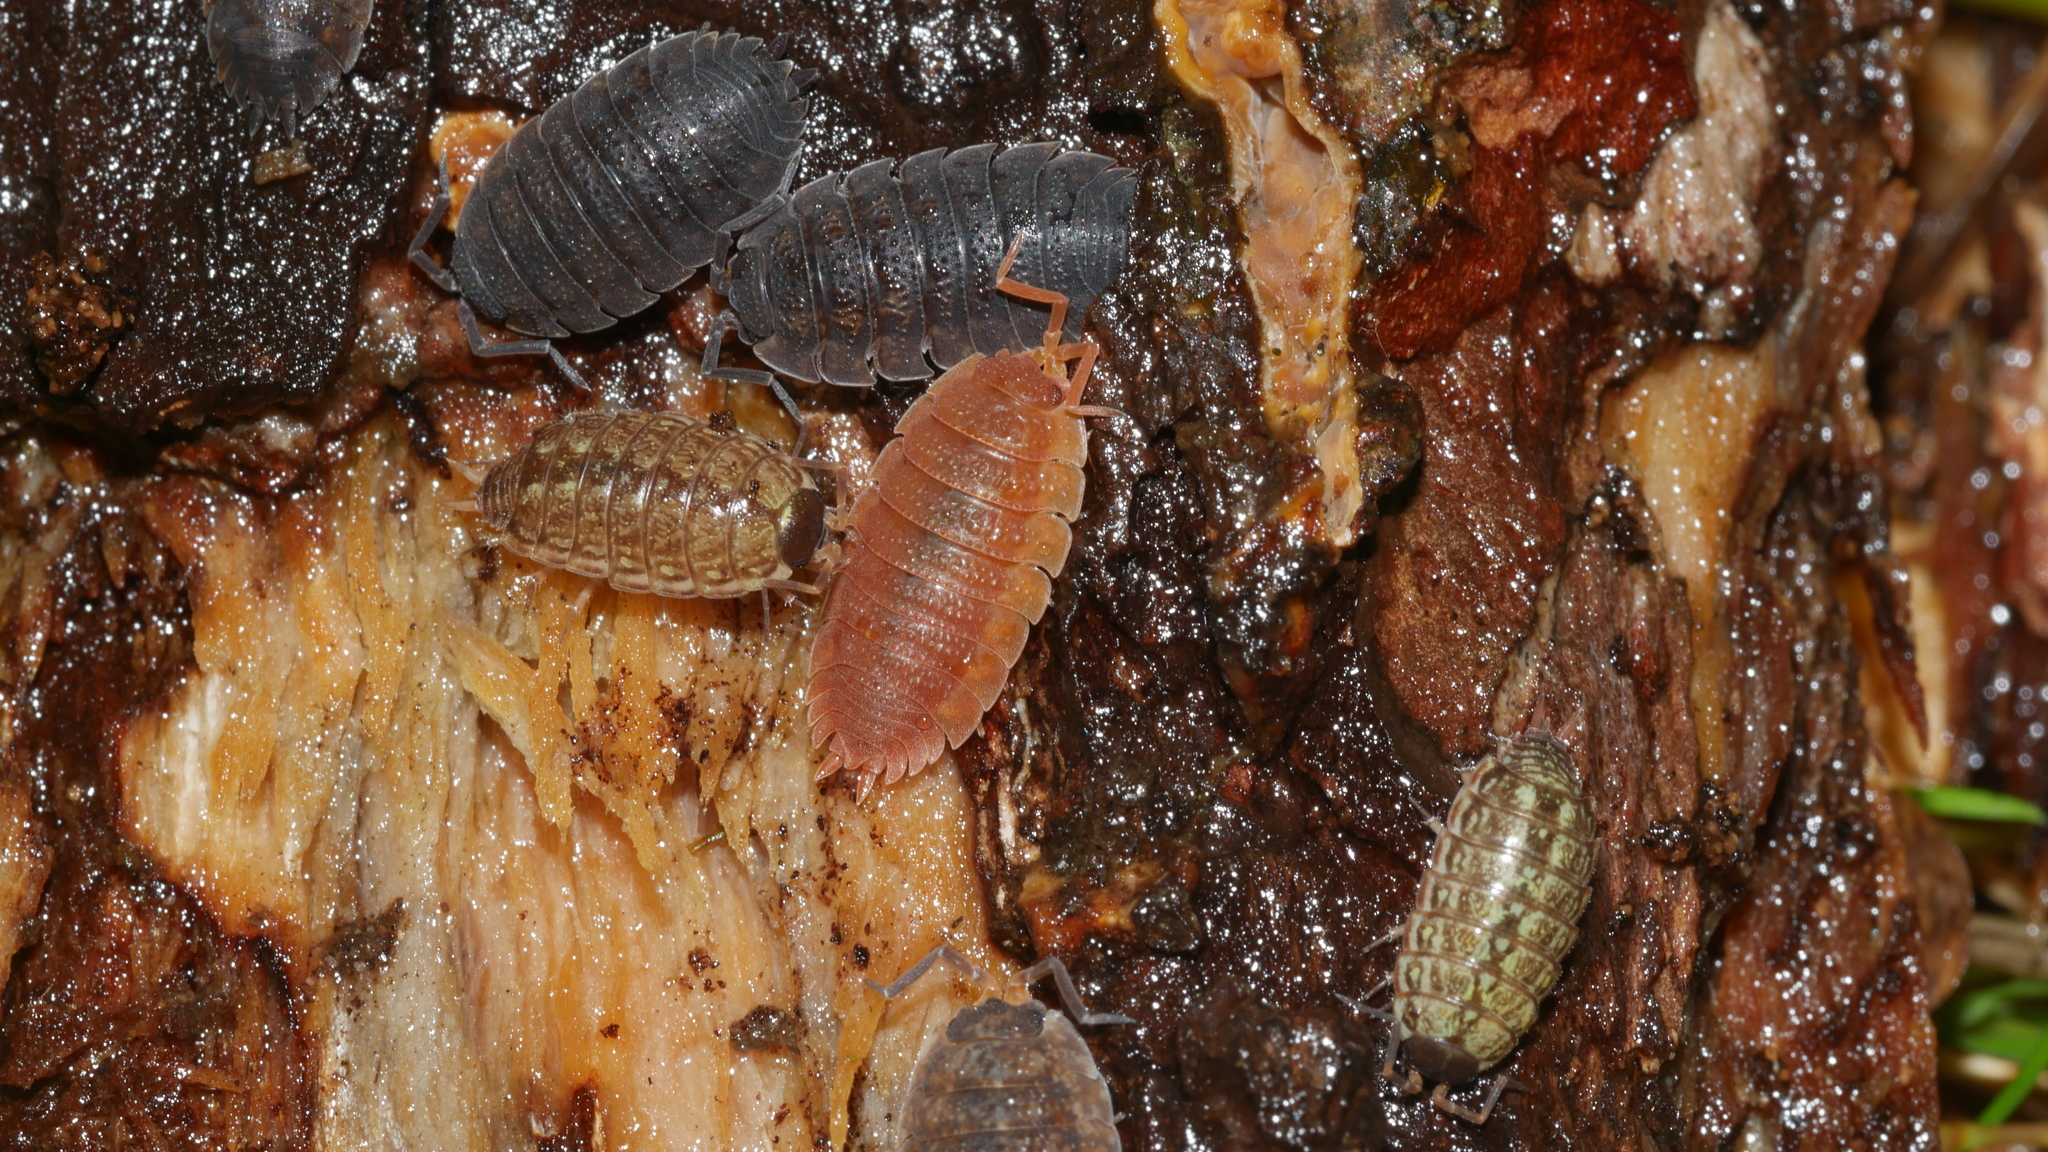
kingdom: Animalia
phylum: Arthropoda
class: Malacostraca
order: Isopoda
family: Porcellionidae
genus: Porcellio
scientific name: Porcellio scaber
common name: Common rough woodlouse
